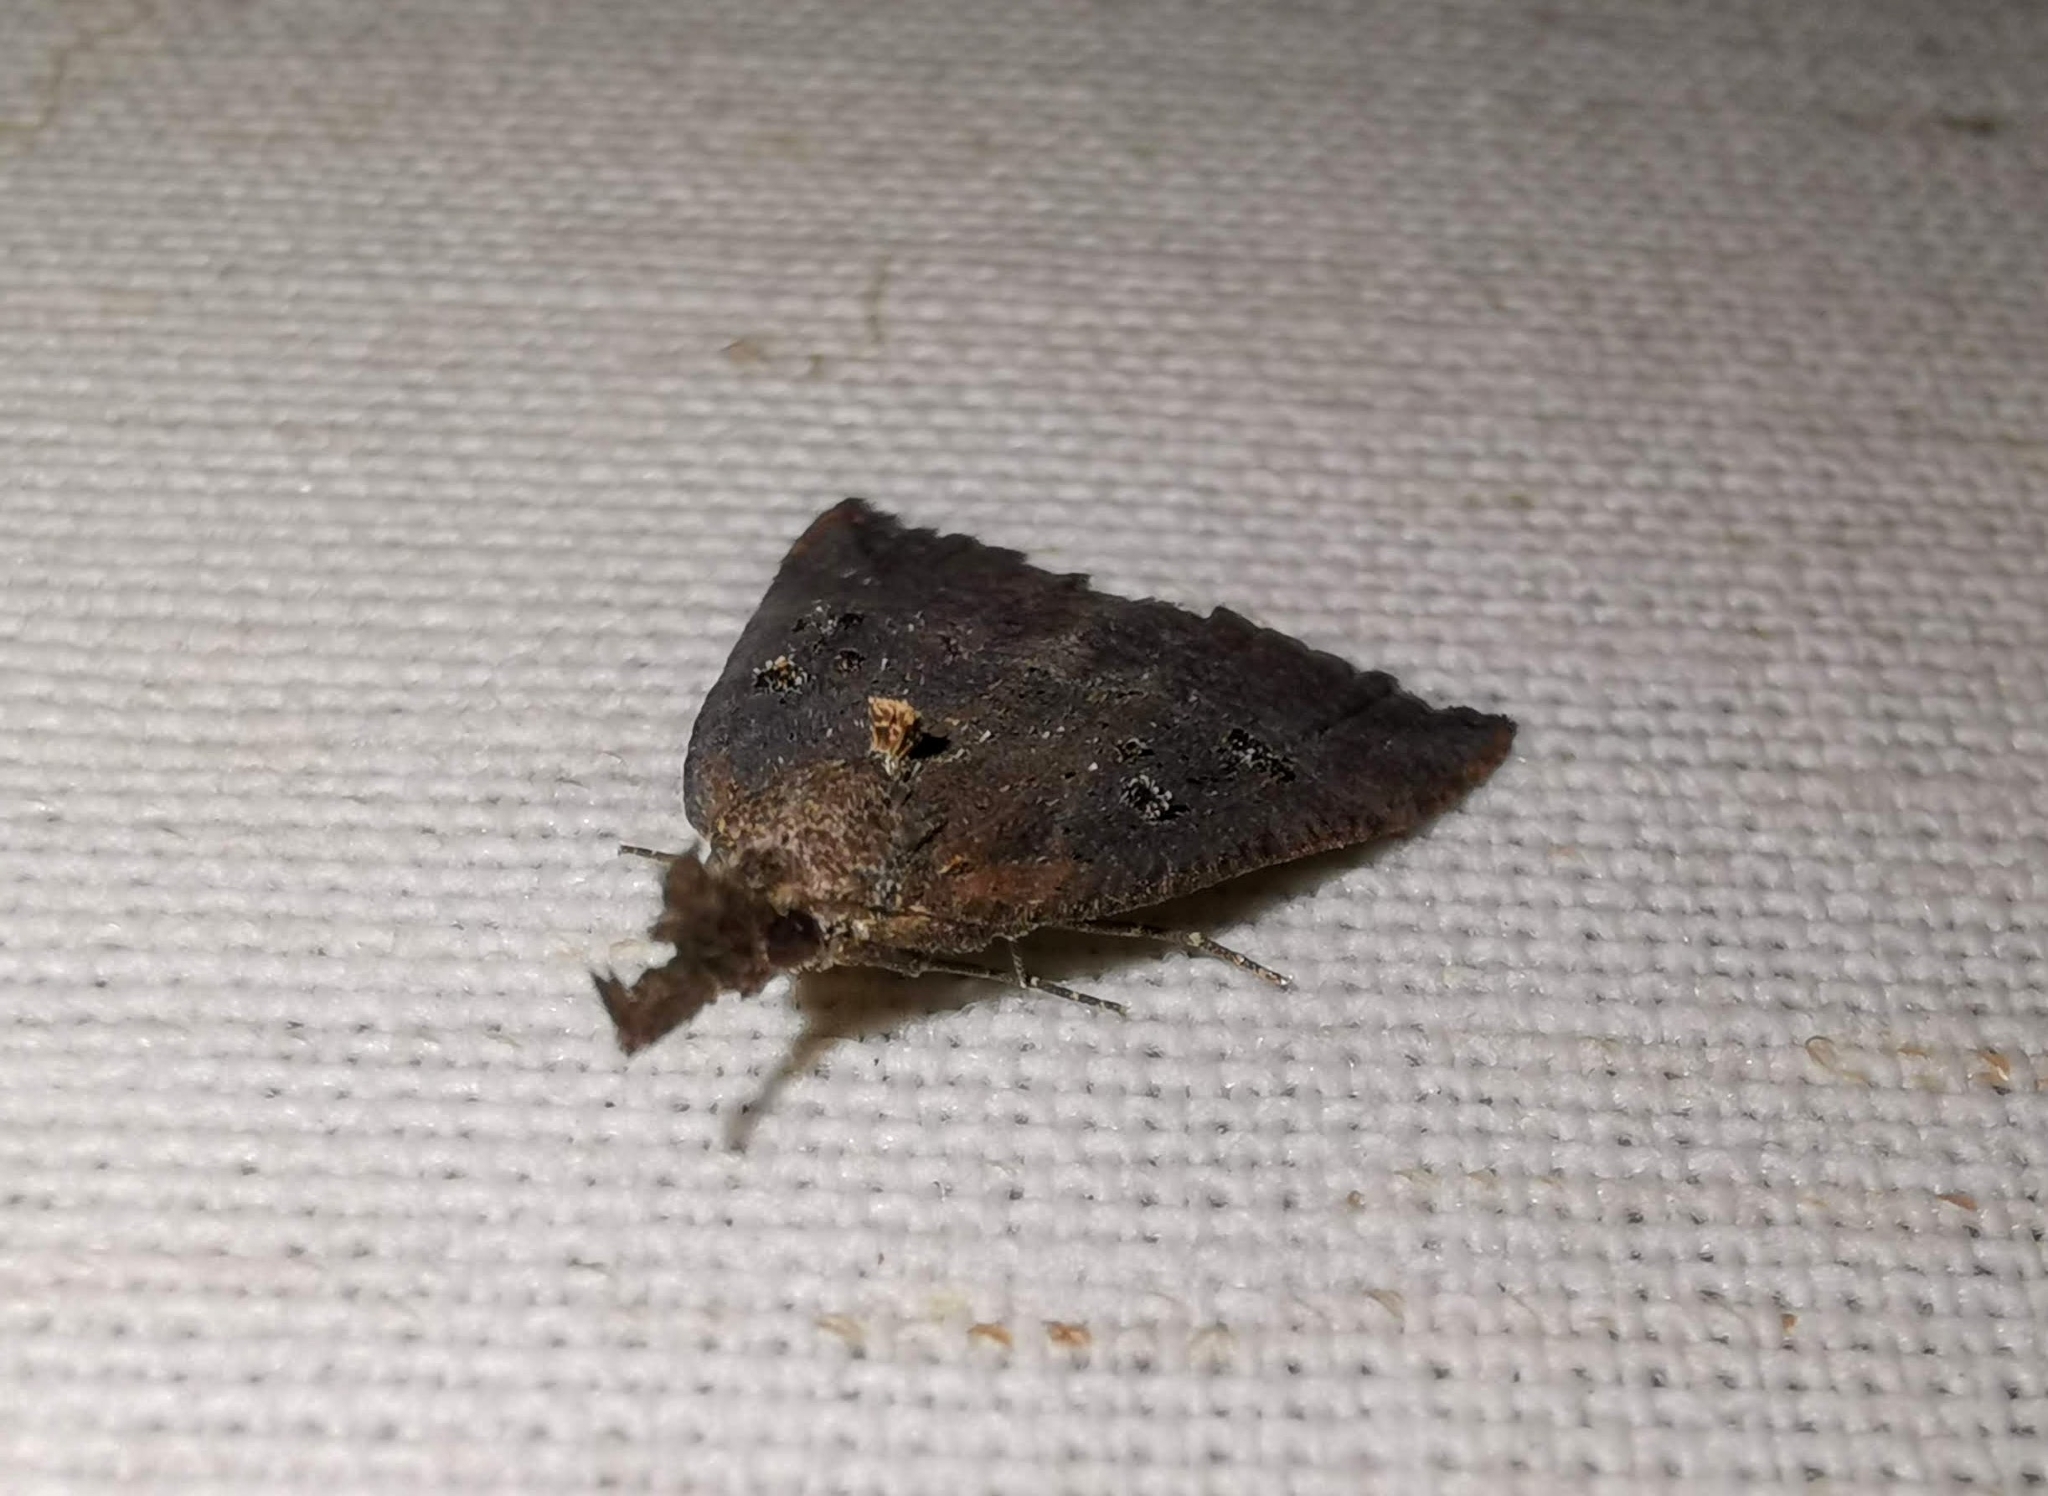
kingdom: Animalia
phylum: Arthropoda
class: Insecta
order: Lepidoptera
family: Erebidae
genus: Hypena
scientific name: Hypena rostralis
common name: Buttoned snout
